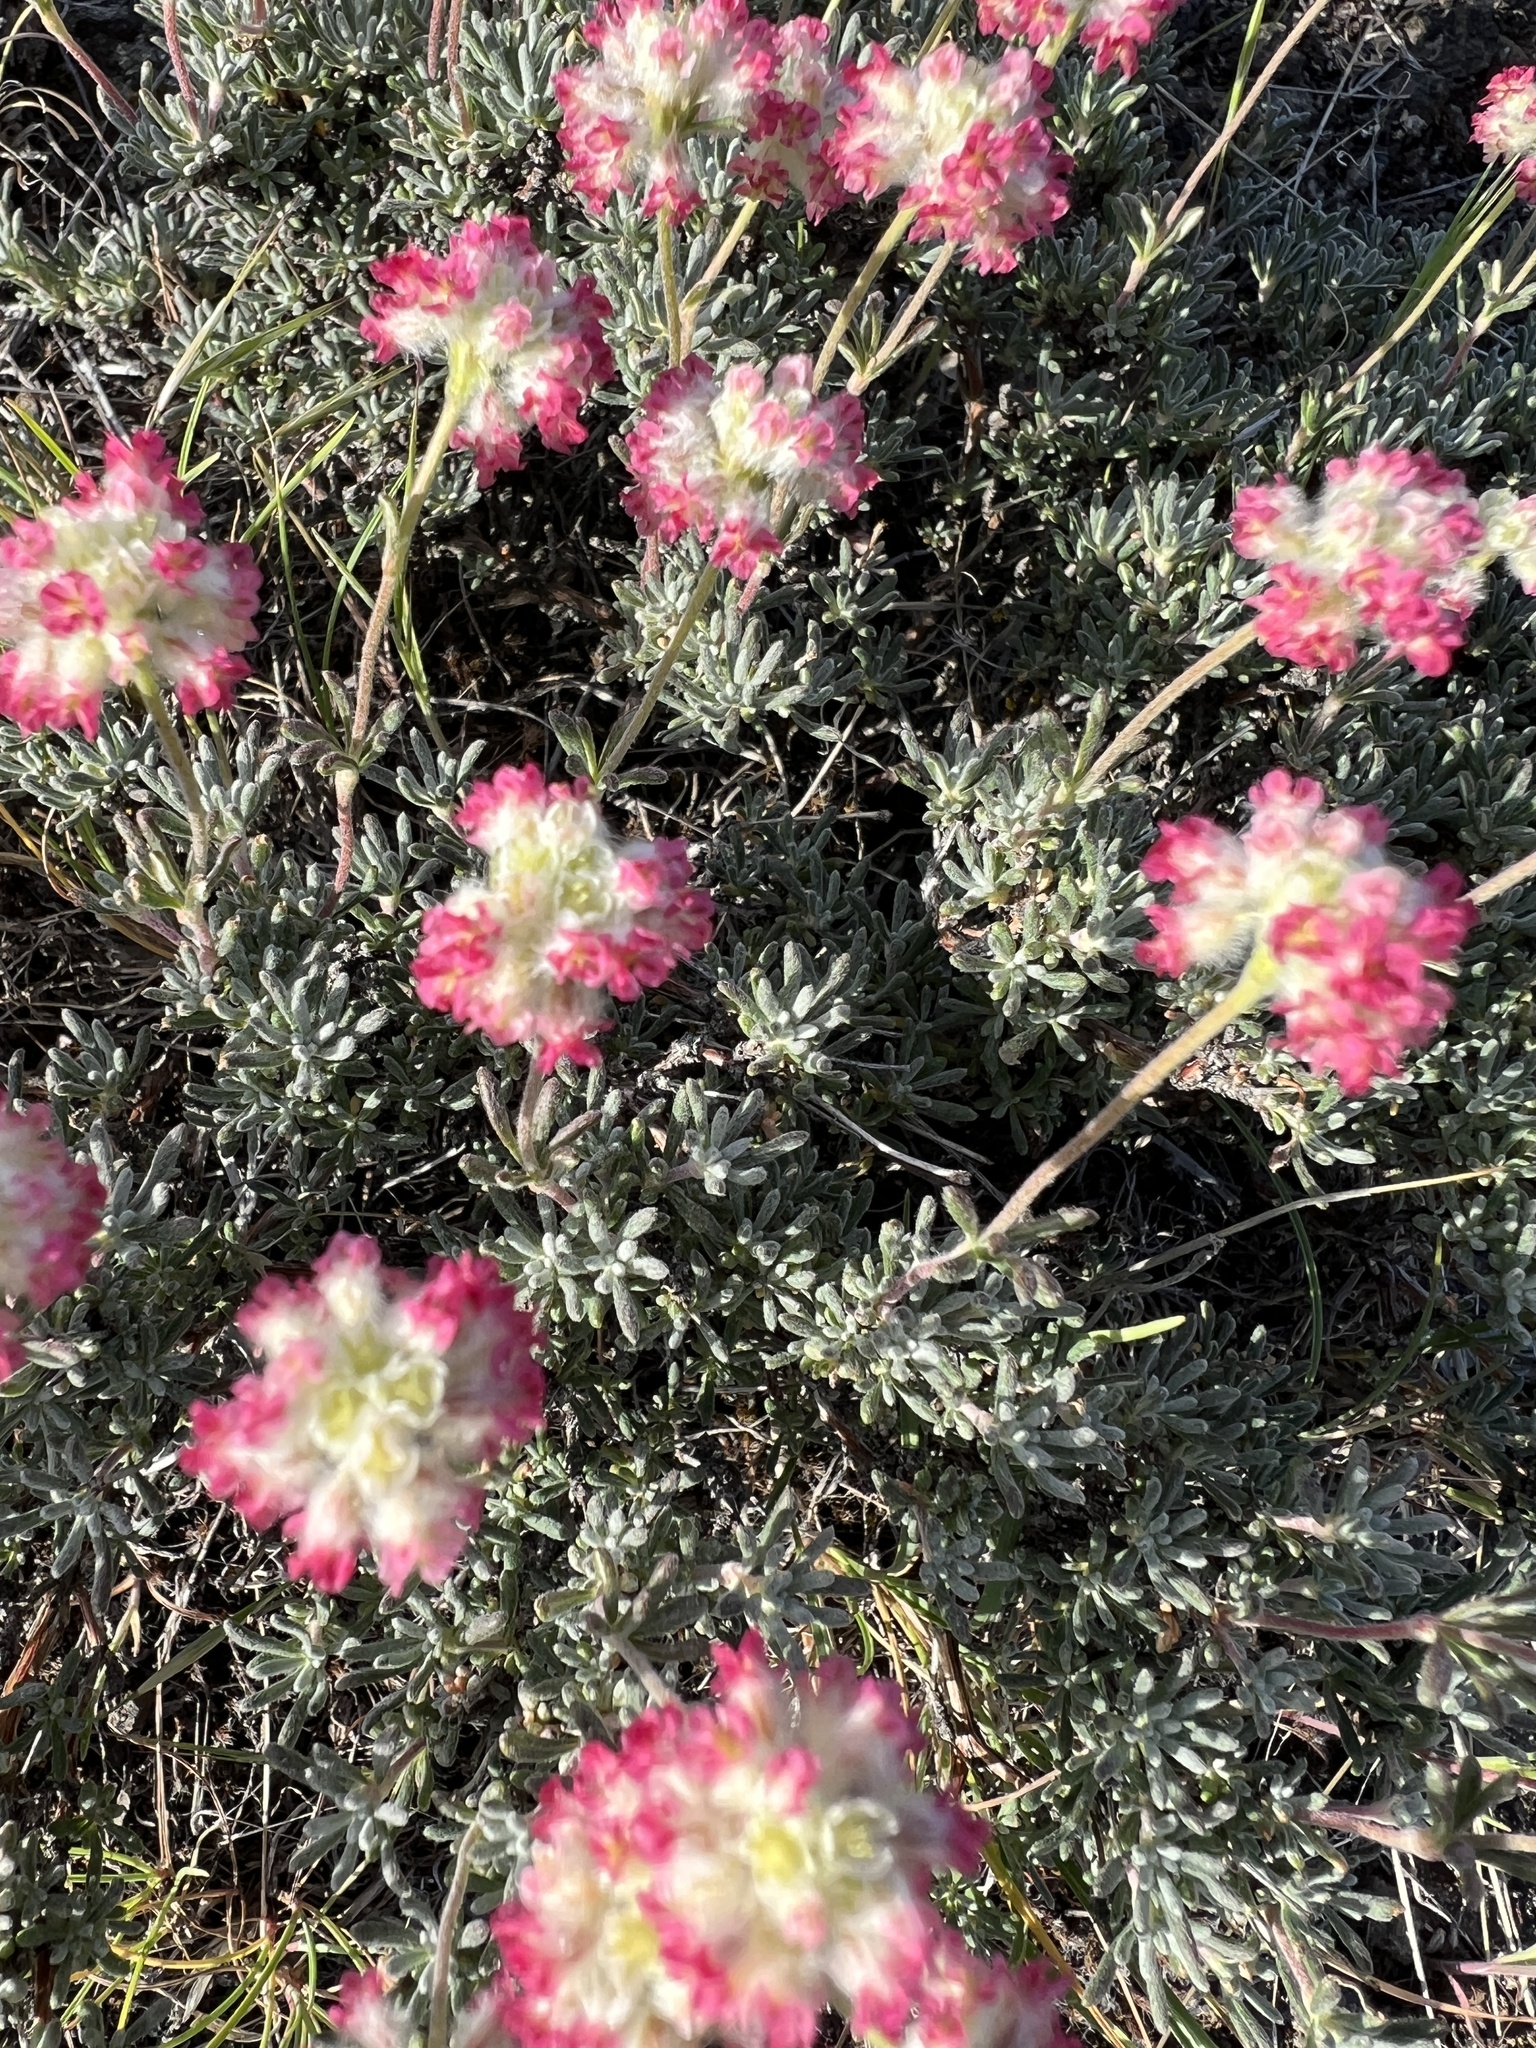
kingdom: Plantae
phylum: Tracheophyta
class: Magnoliopsida
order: Caryophyllales
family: Polygonaceae
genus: Eriogonum
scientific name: Eriogonum thymoides
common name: Thyme-leaf wild buckwheat
